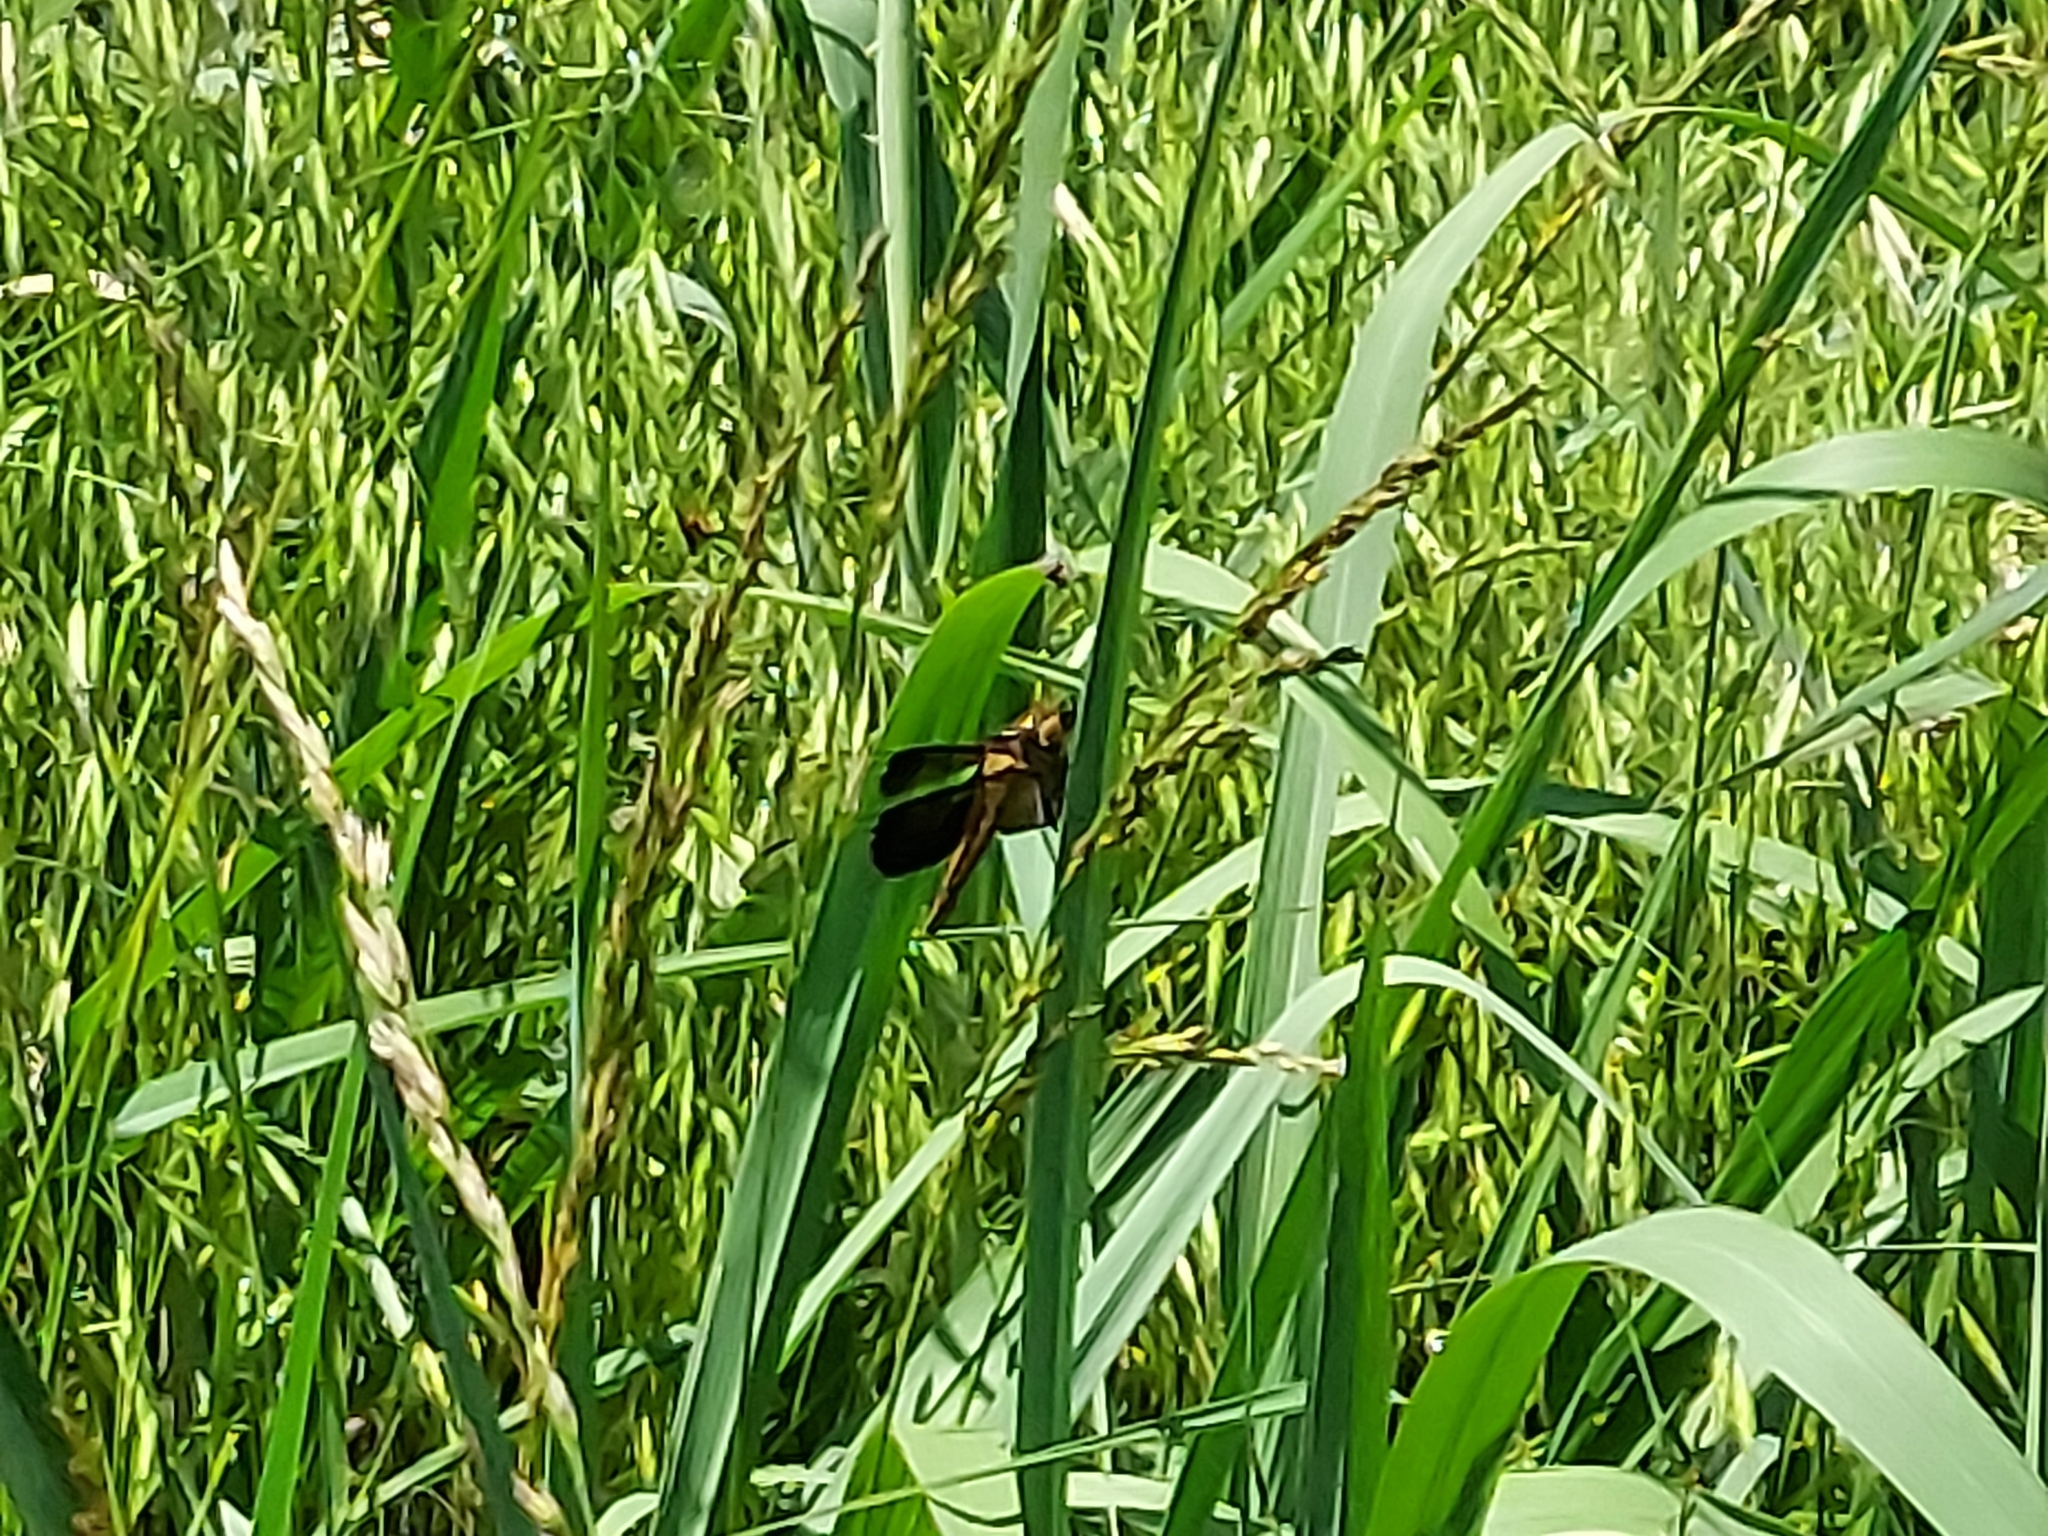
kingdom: Animalia
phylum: Arthropoda
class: Insecta
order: Odonata
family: Libellulidae
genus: Libellula
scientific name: Libellula luctuosa
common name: Widow skimmer
